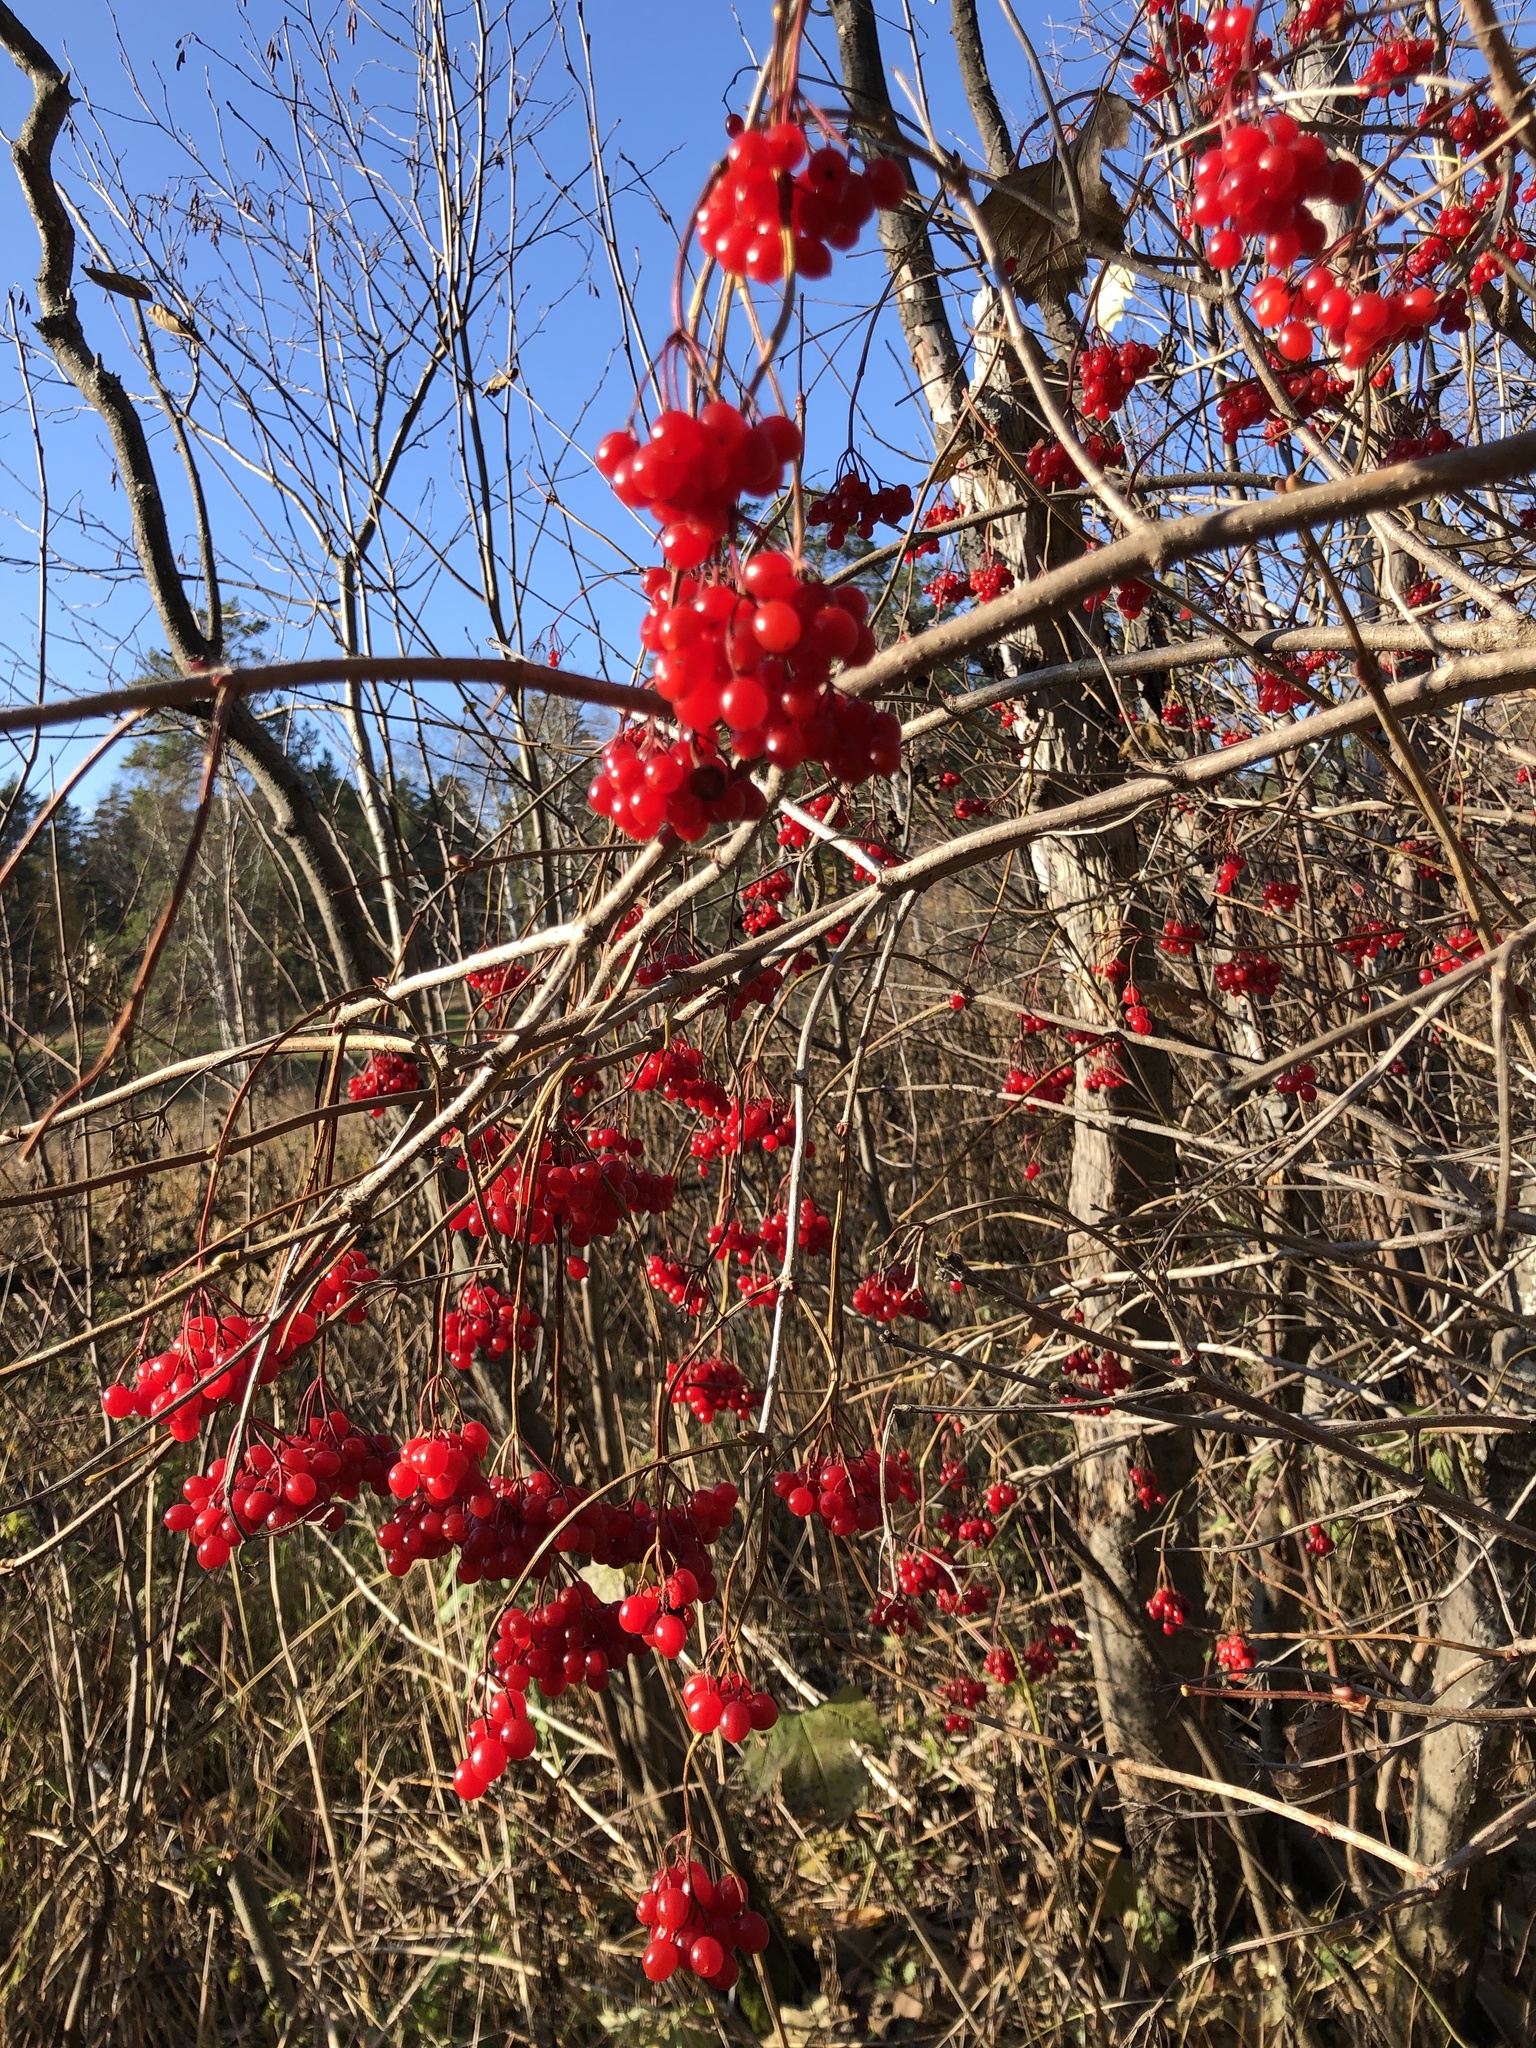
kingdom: Plantae
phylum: Tracheophyta
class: Magnoliopsida
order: Dipsacales
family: Viburnaceae
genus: Viburnum
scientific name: Viburnum opulus
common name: Guelder-rose
